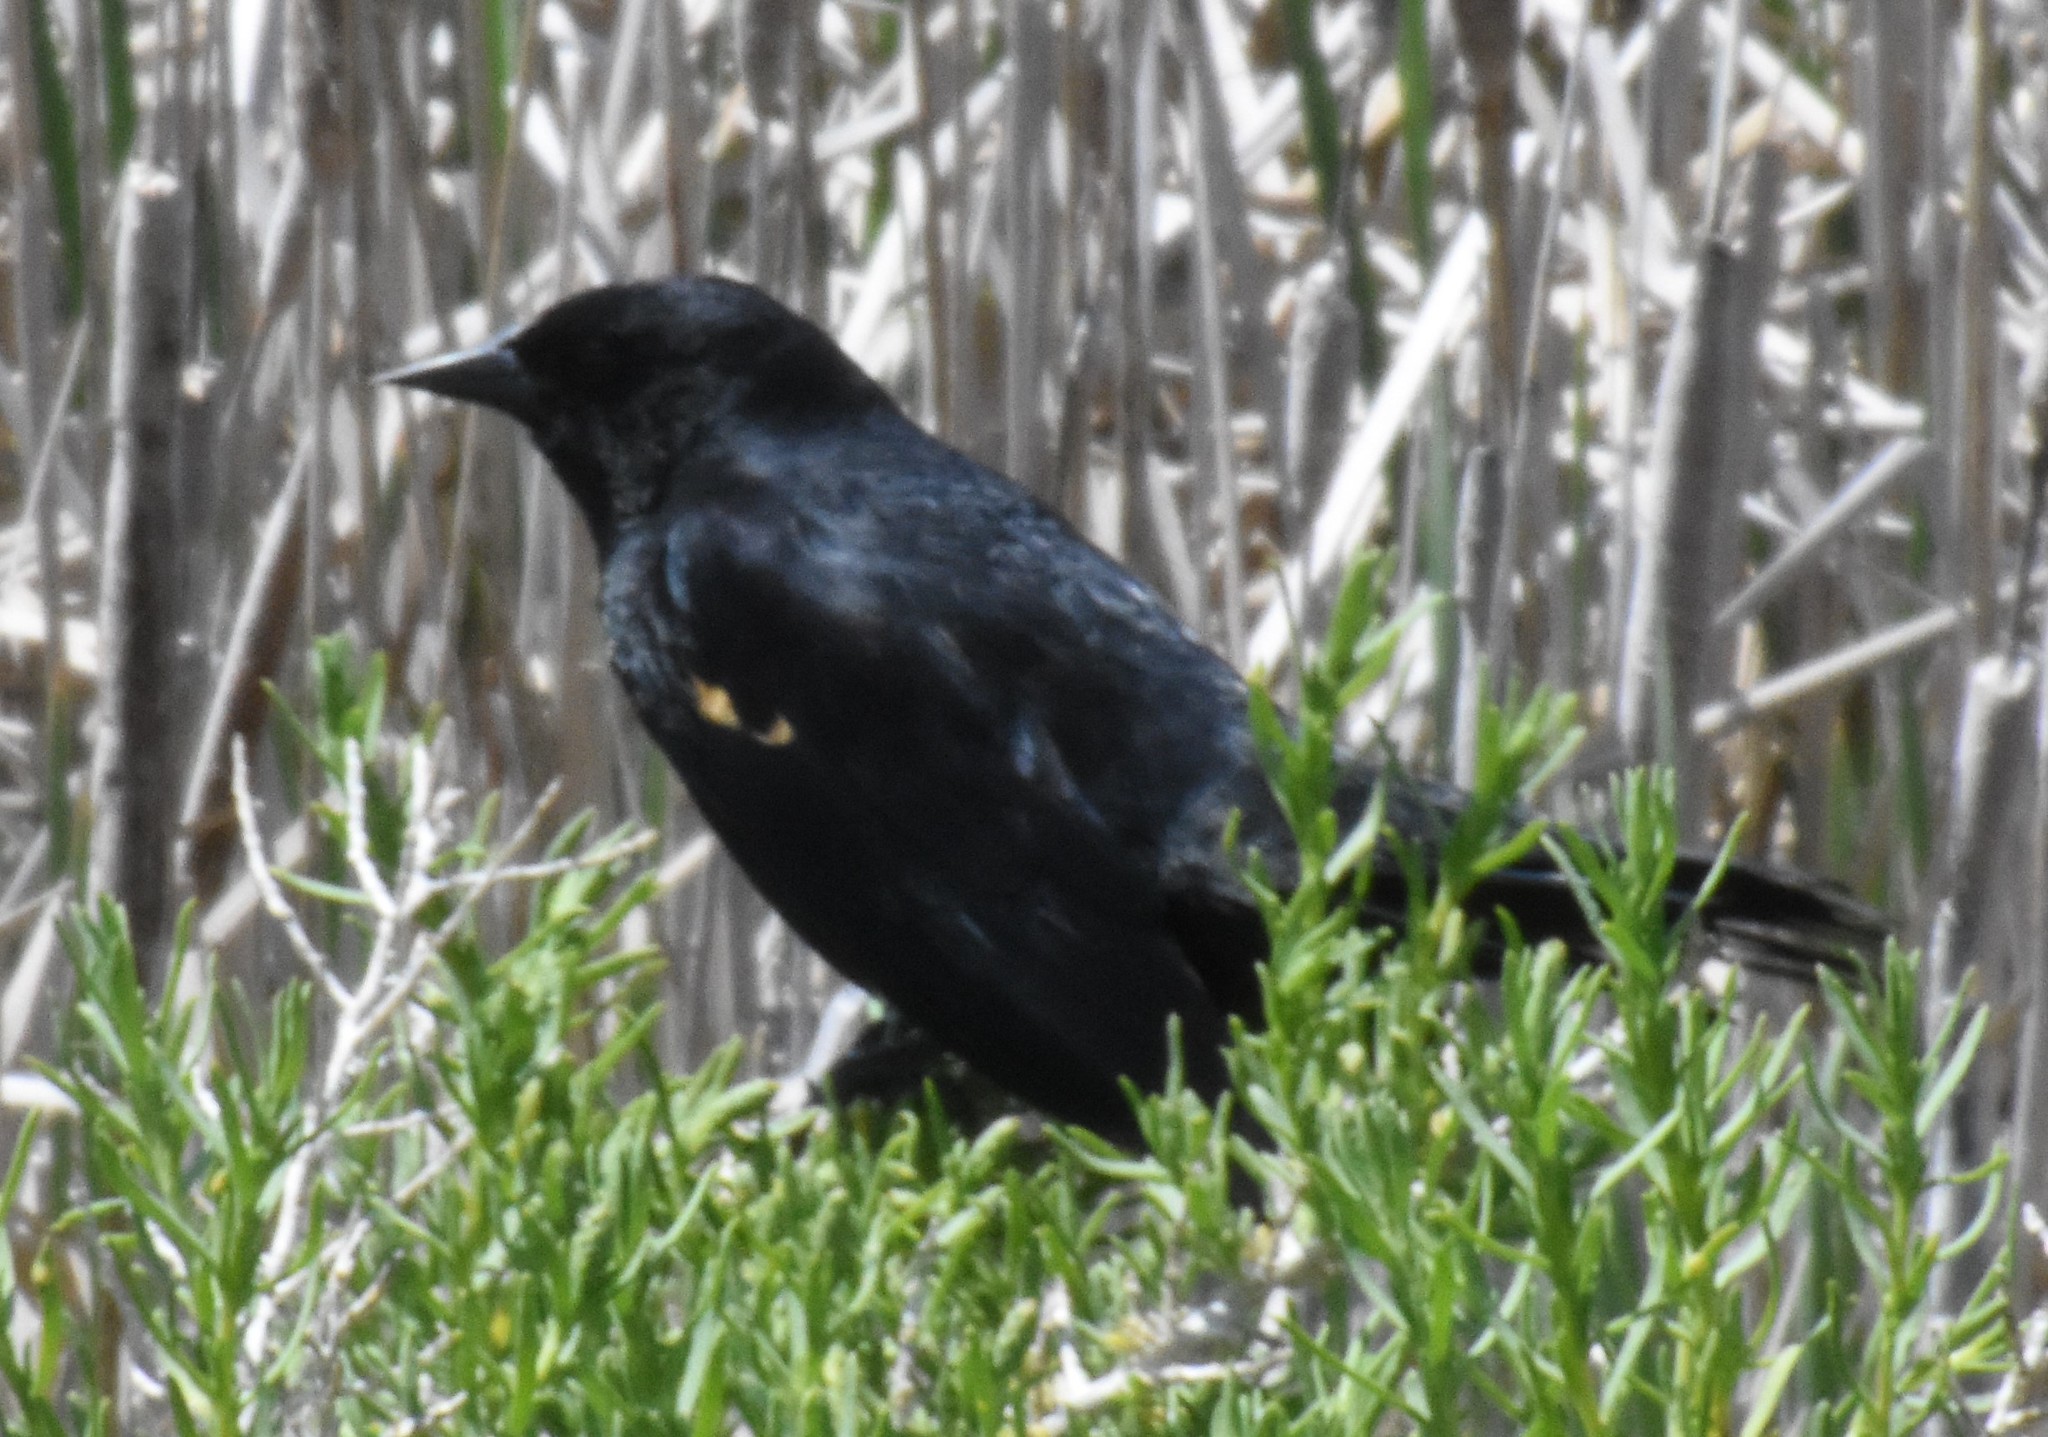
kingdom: Animalia
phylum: Chordata
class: Aves
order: Passeriformes
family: Icteridae
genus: Agelaius
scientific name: Agelaius phoeniceus
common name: Red-winged blackbird
